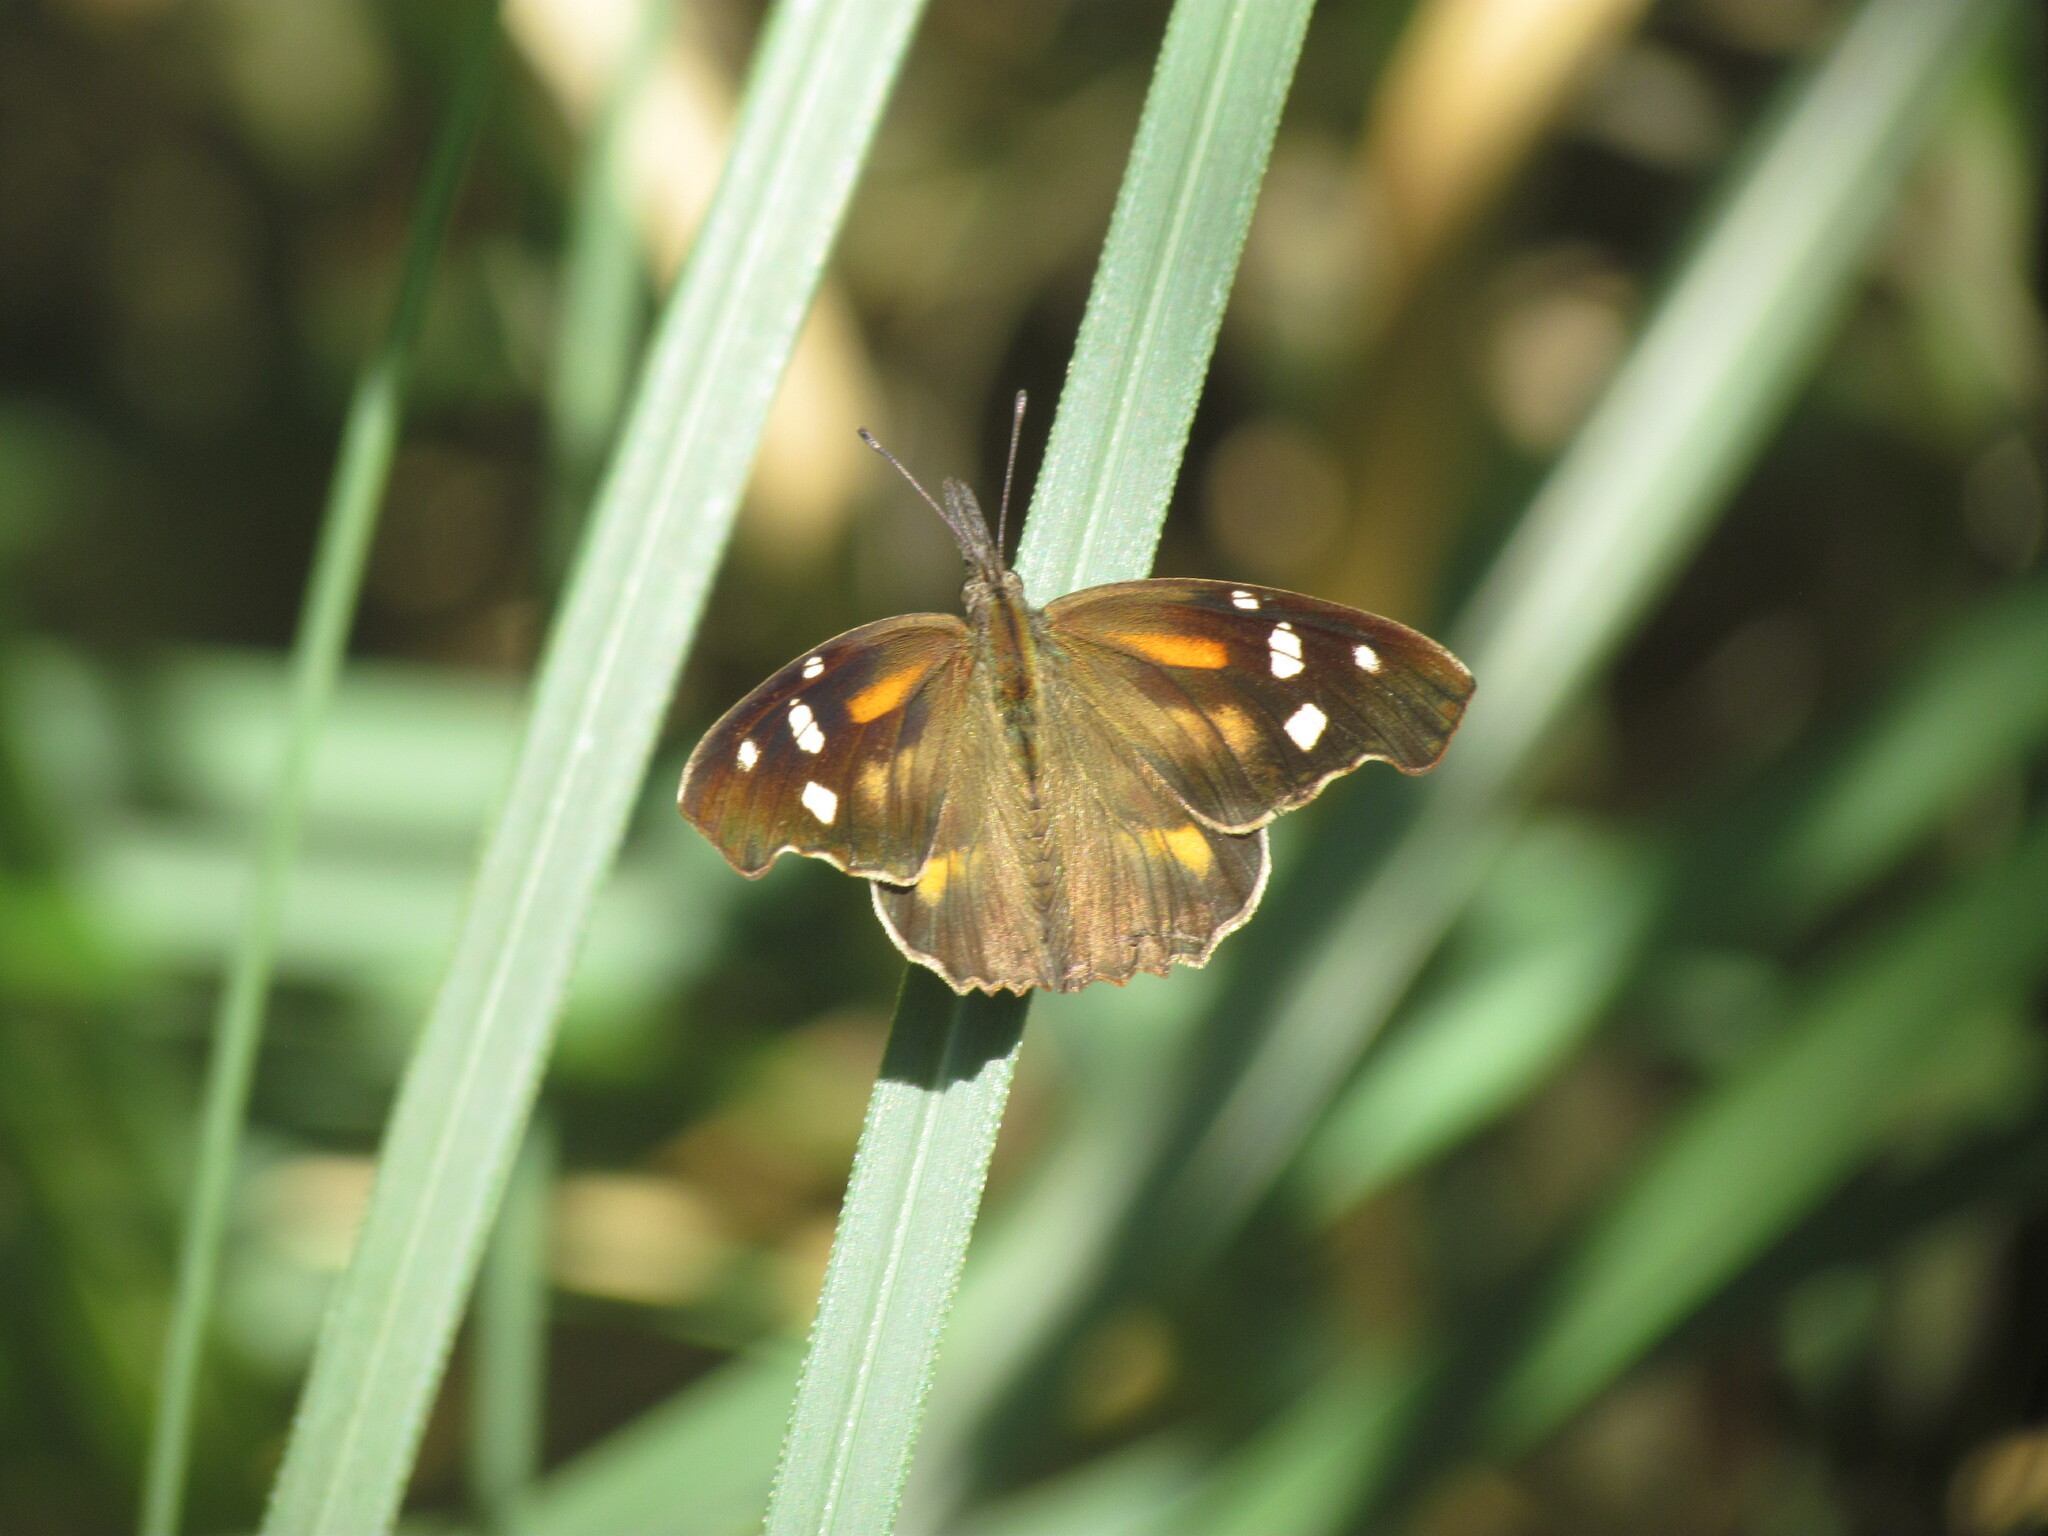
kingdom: Animalia
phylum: Arthropoda
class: Insecta
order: Lepidoptera
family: Nymphalidae
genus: Libytheana
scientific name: Libytheana carinenta
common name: American snout
